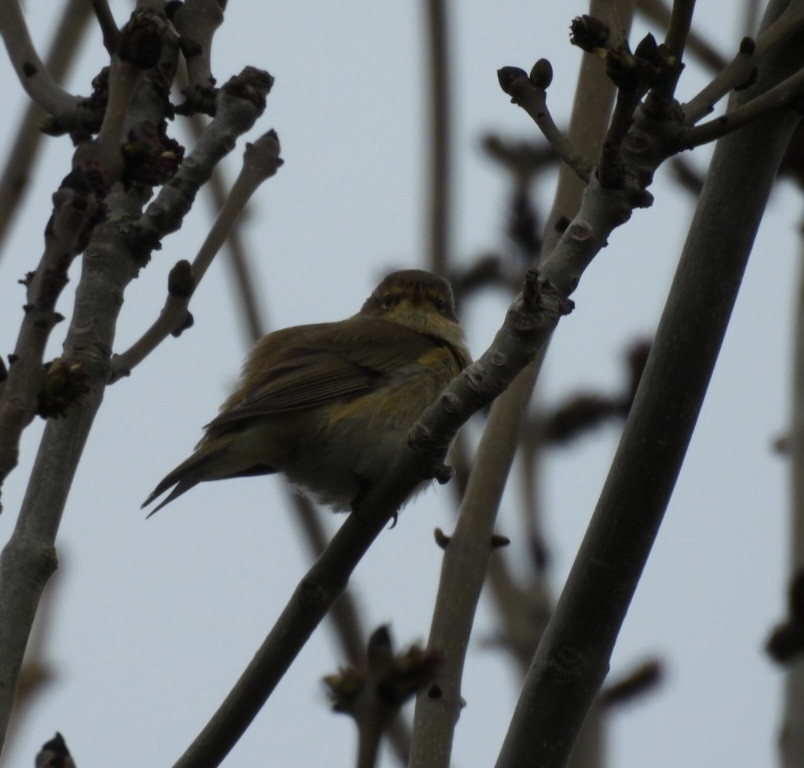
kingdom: Animalia
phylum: Chordata
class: Aves
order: Passeriformes
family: Phylloscopidae
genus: Phylloscopus
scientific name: Phylloscopus collybita
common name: Common chiffchaff
